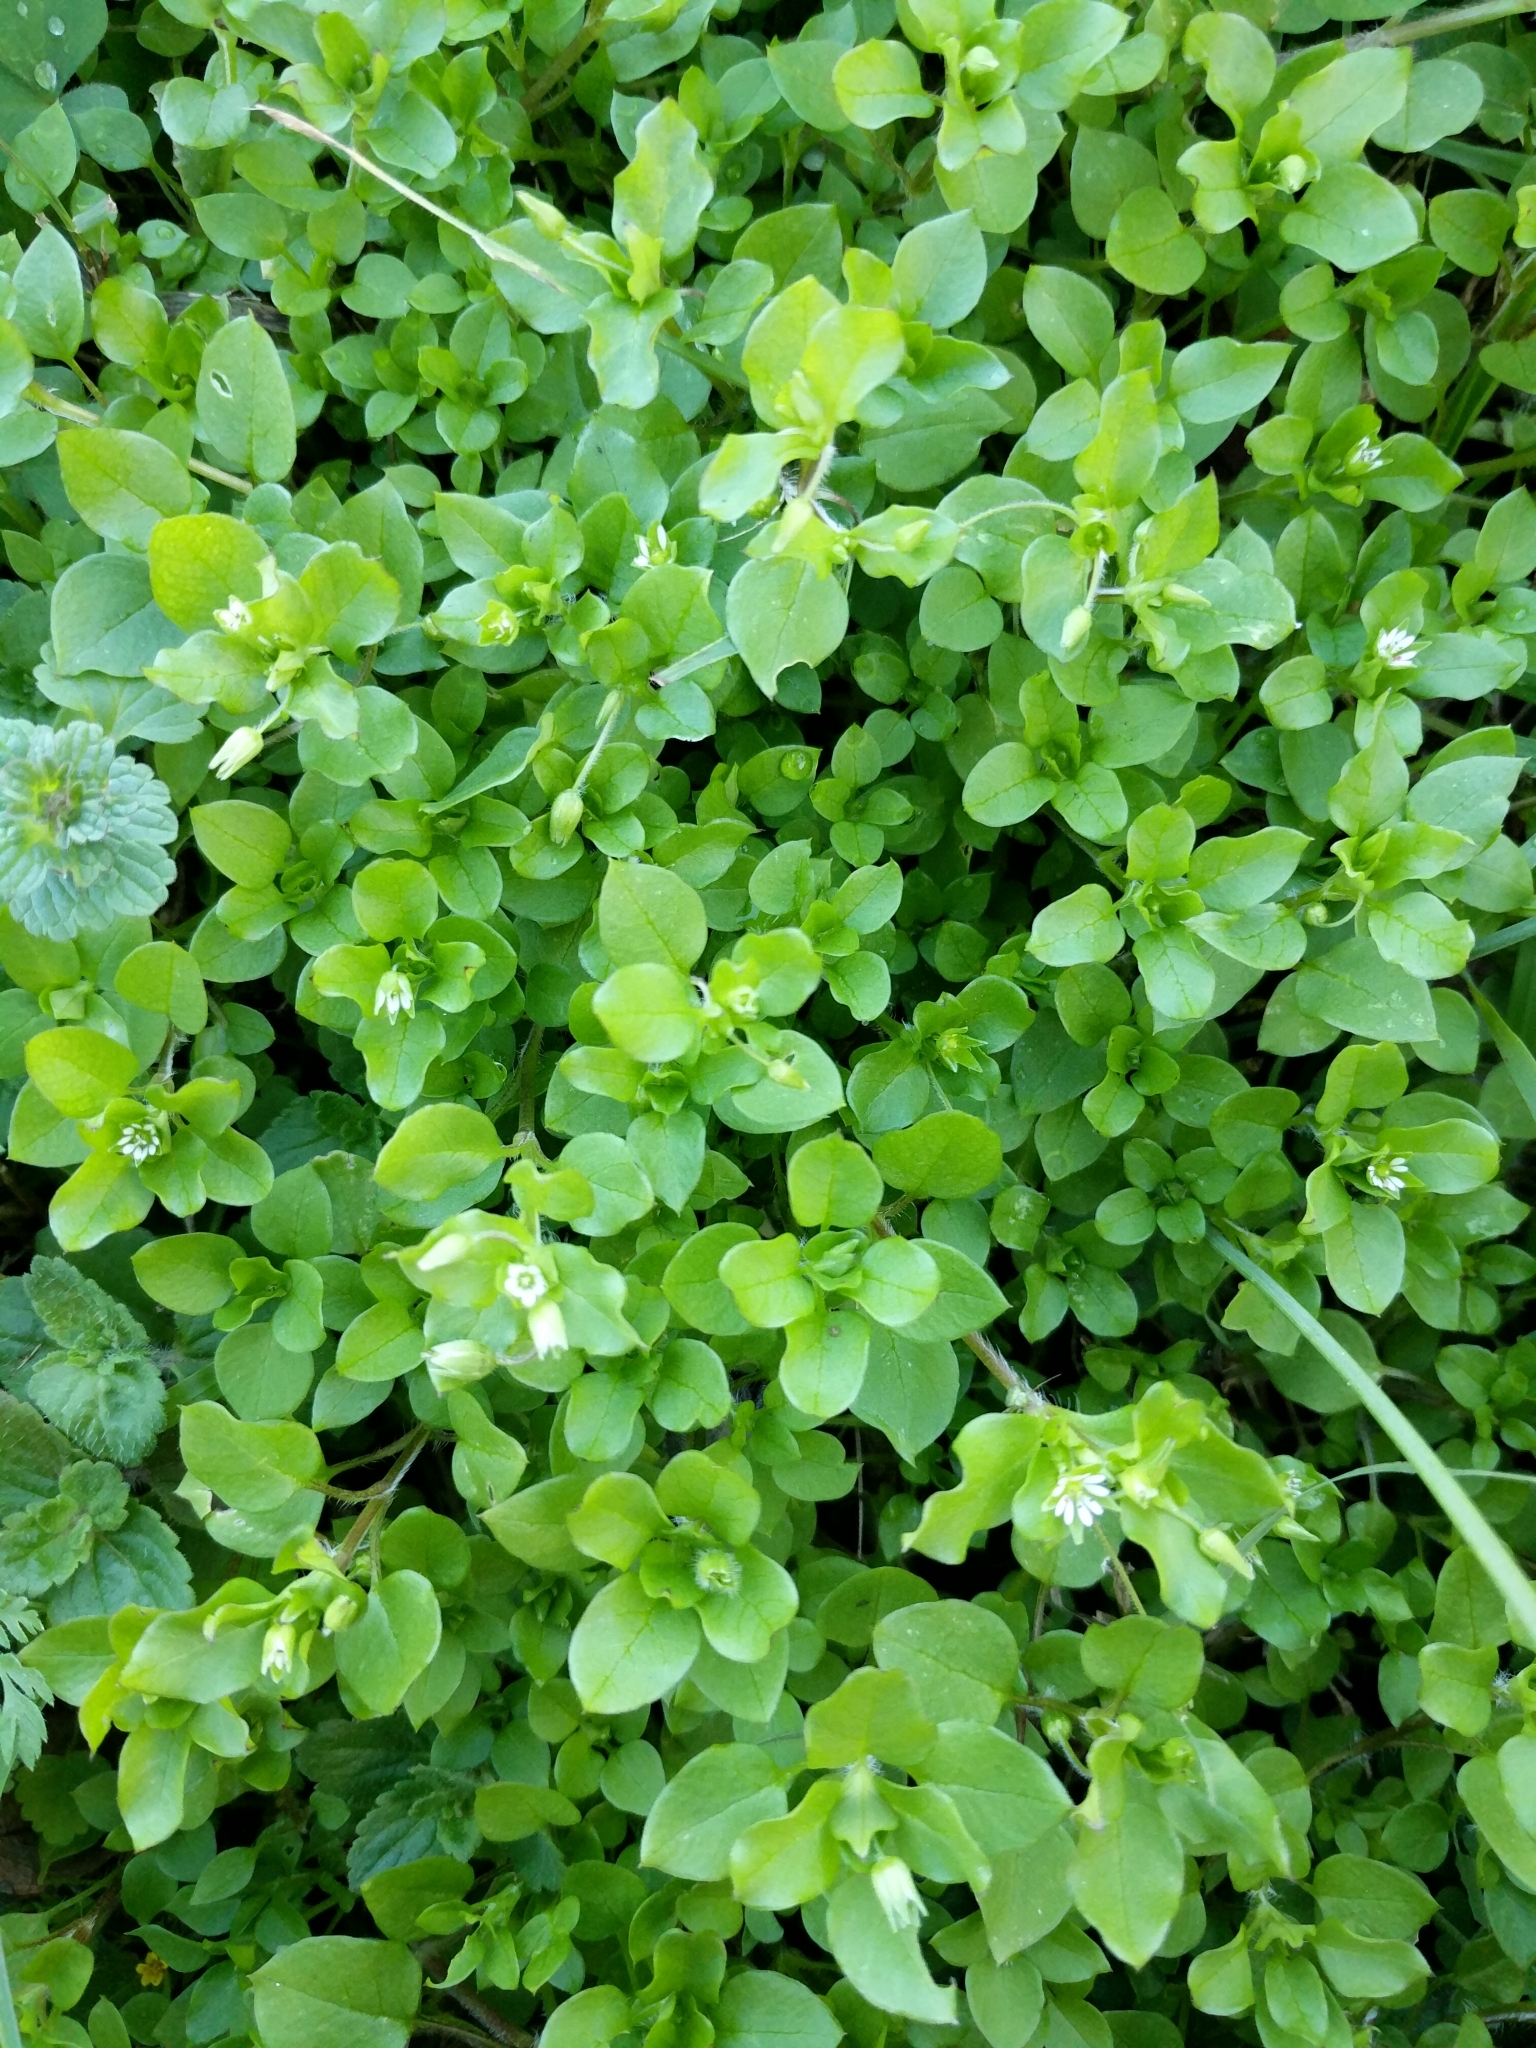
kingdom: Plantae
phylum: Tracheophyta
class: Magnoliopsida
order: Caryophyllales
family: Caryophyllaceae
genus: Stellaria
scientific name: Stellaria media
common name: Common chickweed
